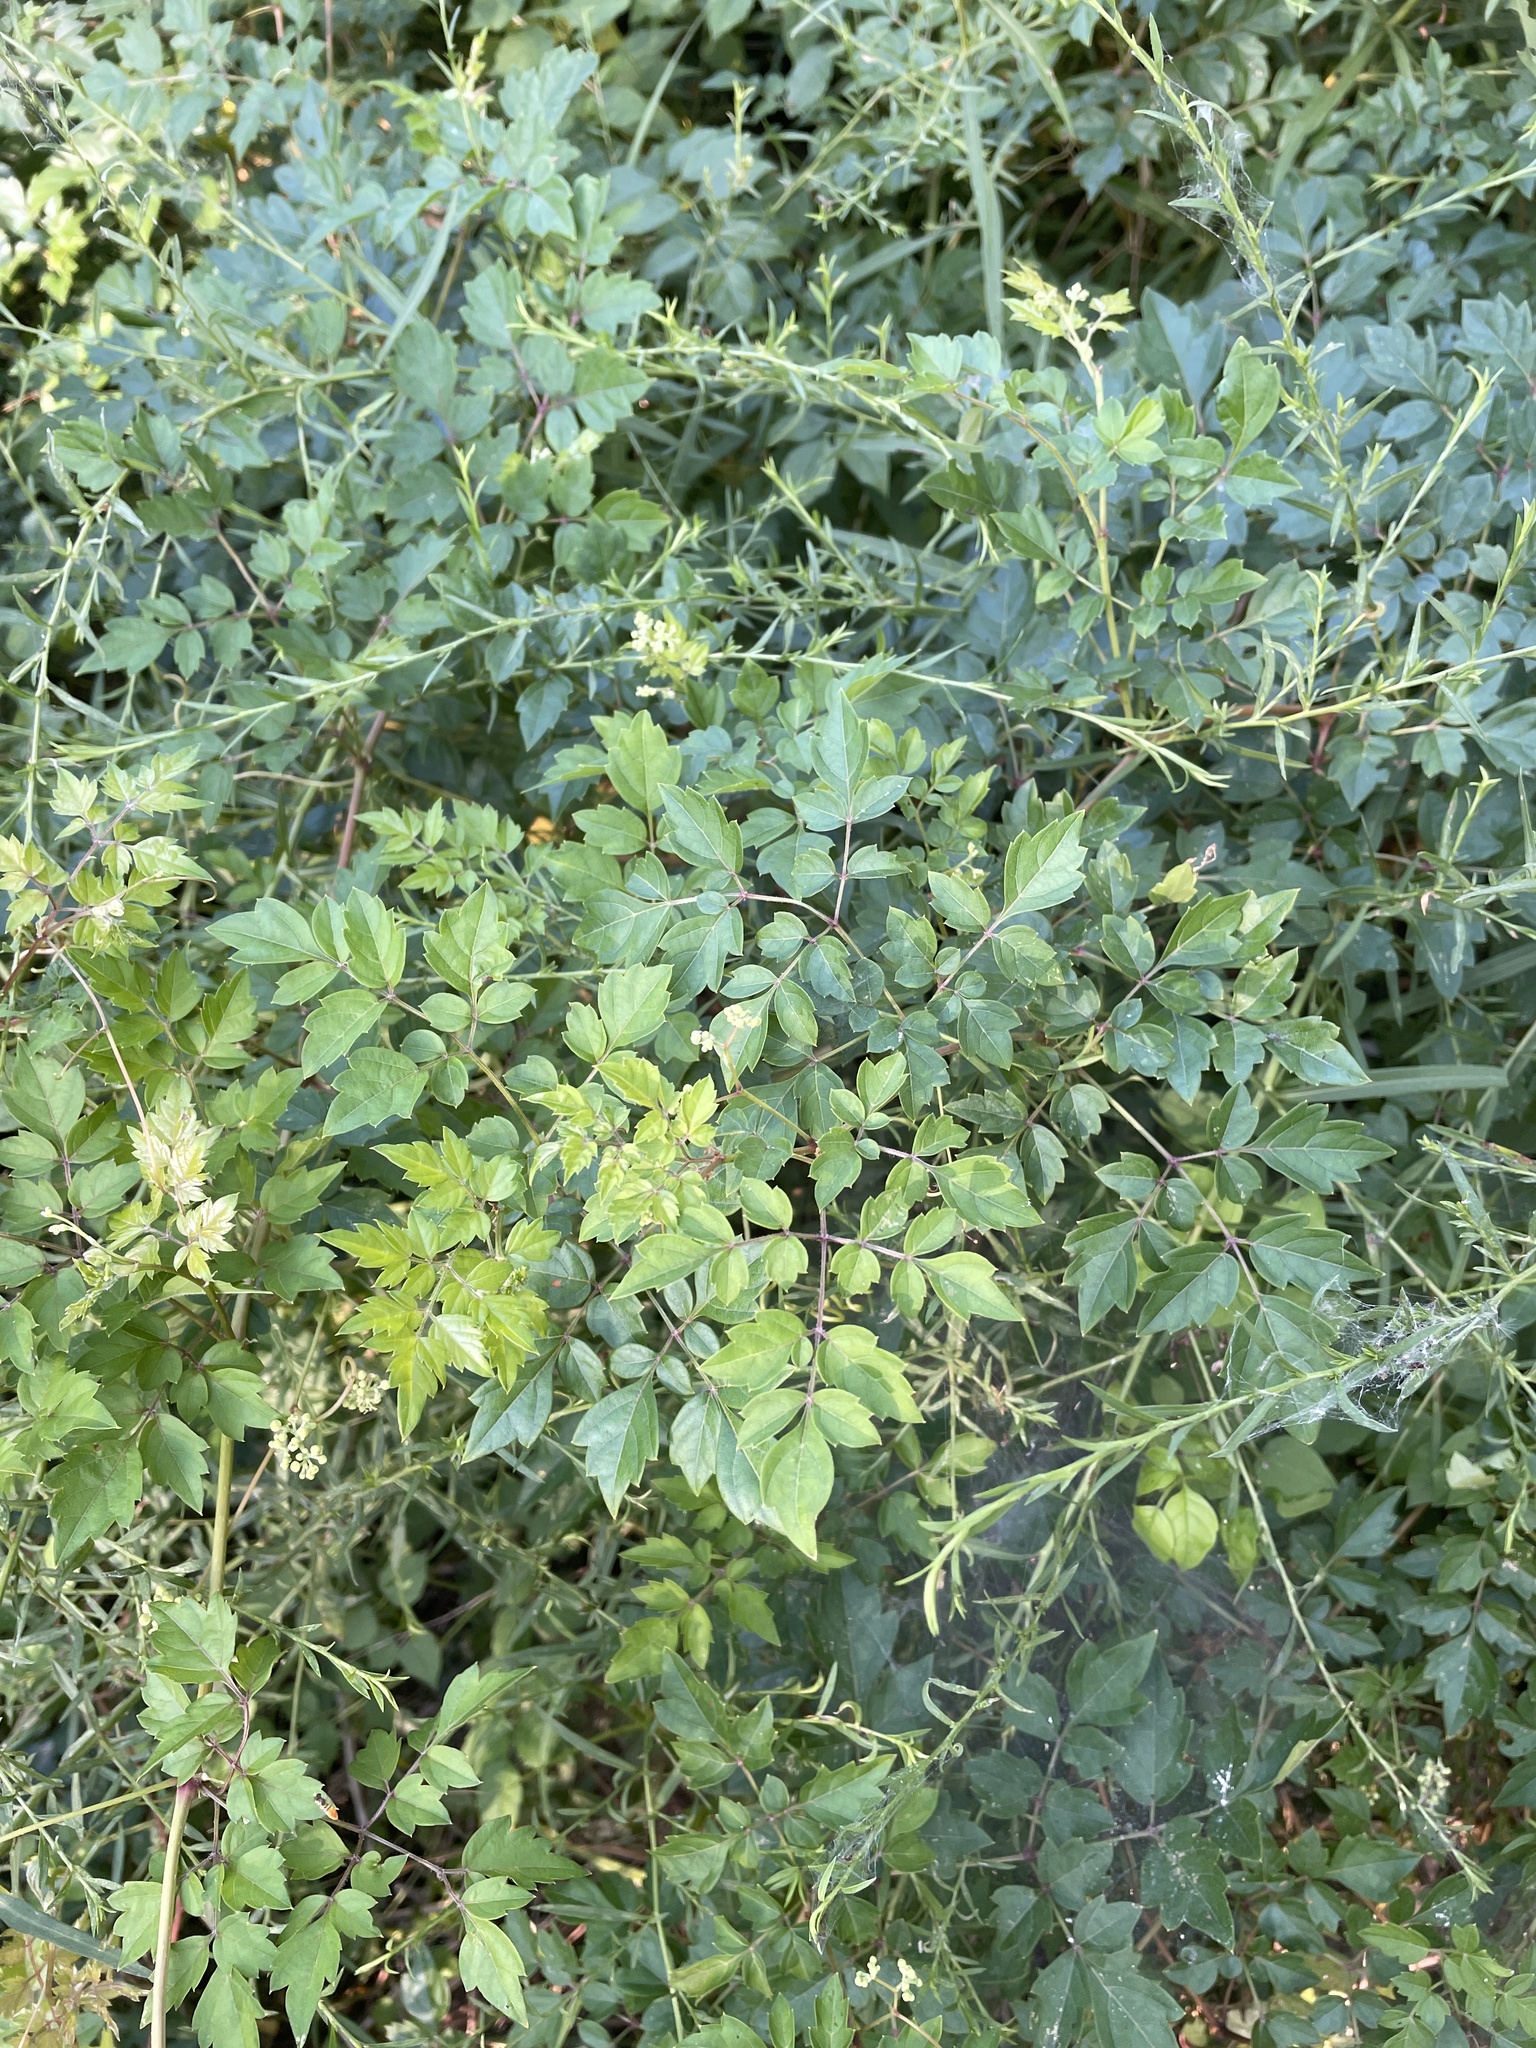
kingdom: Plantae
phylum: Tracheophyta
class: Magnoliopsida
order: Vitales
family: Vitaceae
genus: Nekemias
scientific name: Nekemias arborea
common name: Peppervine
